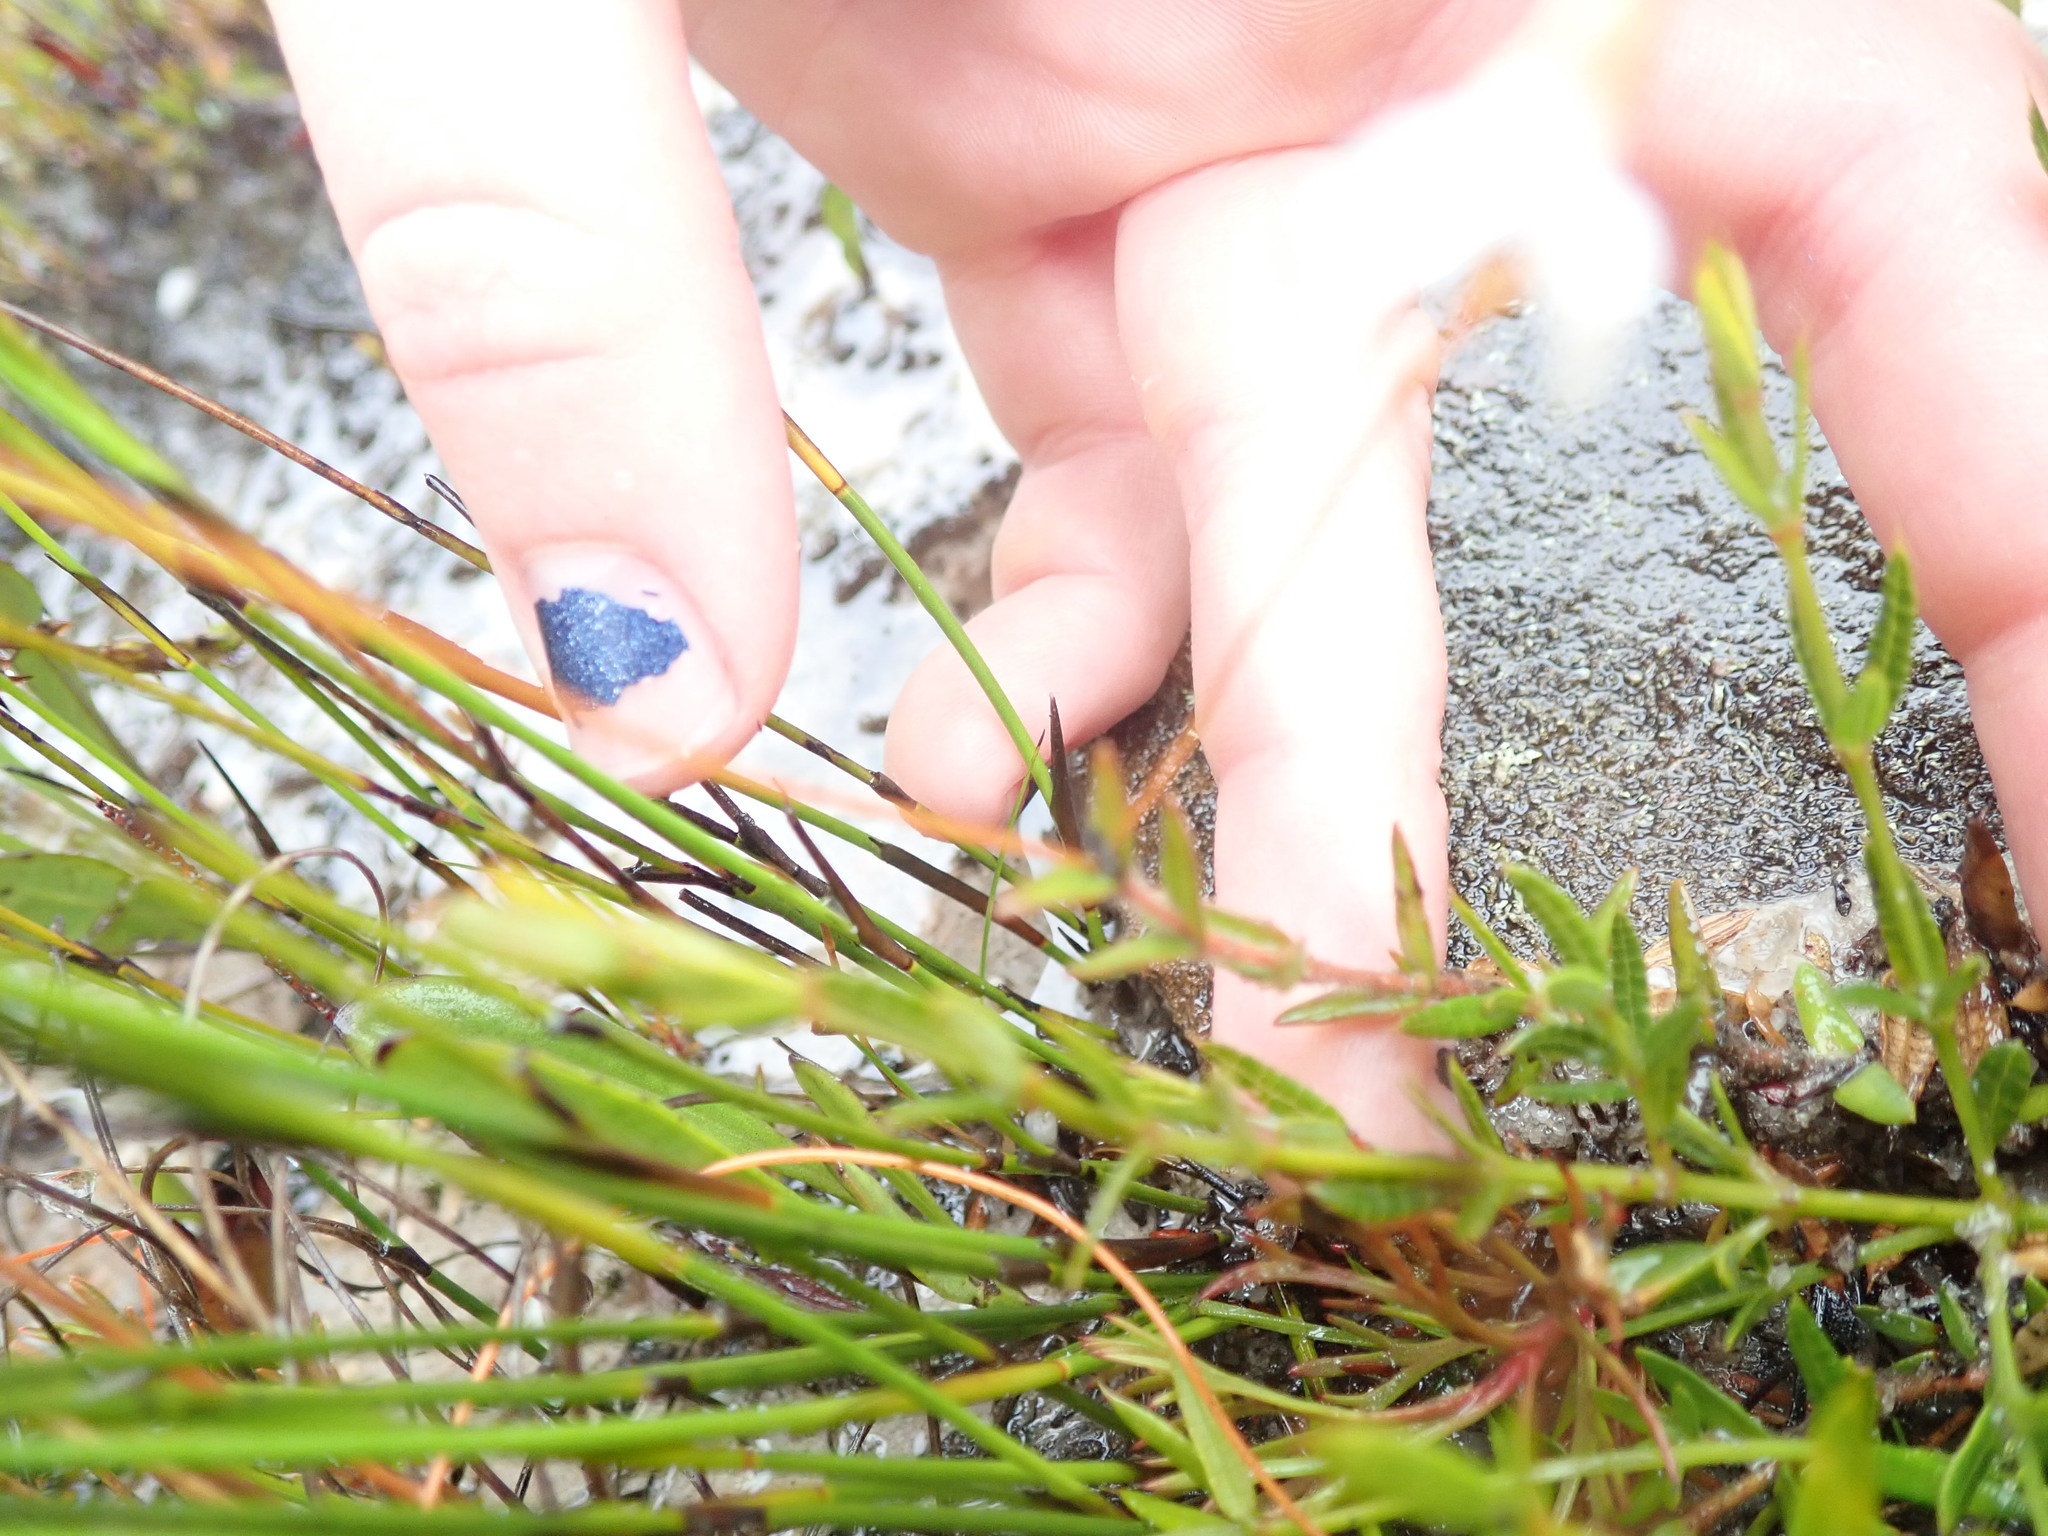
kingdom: Plantae
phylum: Tracheophyta
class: Magnoliopsida
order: Gentianales
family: Loganiaceae
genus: Mitrasacme
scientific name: Mitrasacme polymorpha
